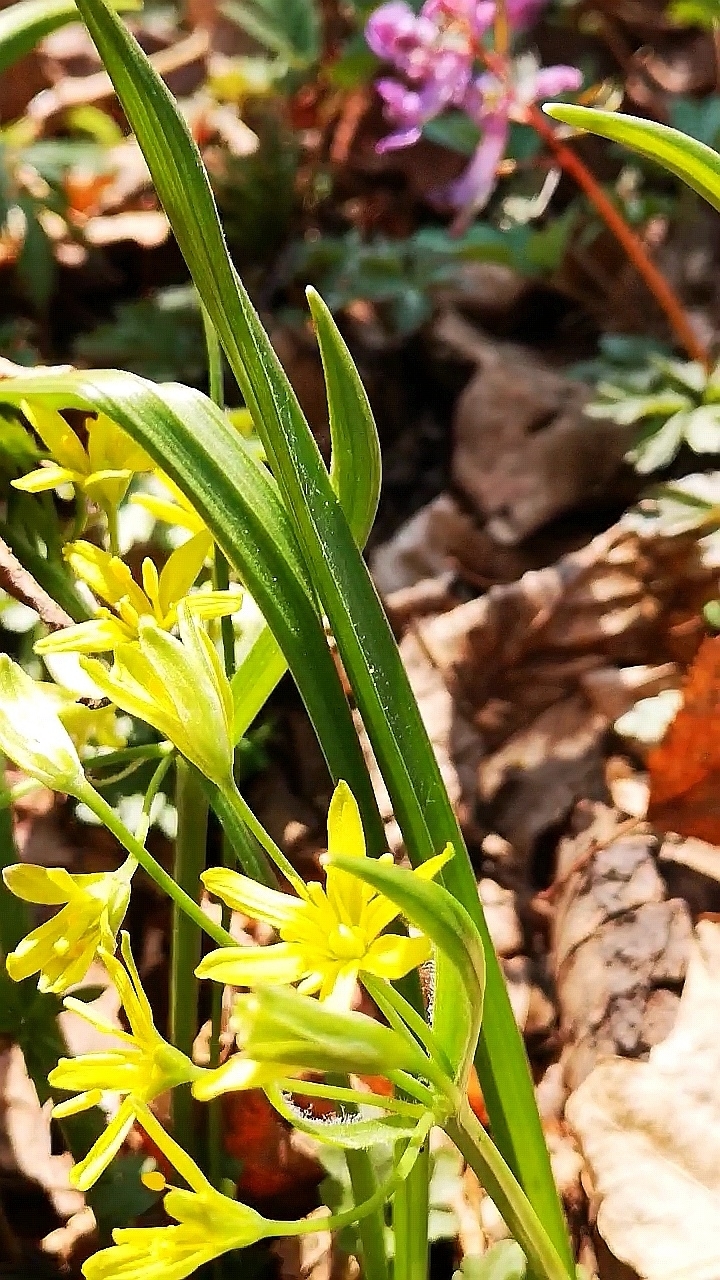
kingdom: Plantae
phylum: Tracheophyta
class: Liliopsida
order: Liliales
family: Liliaceae
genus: Gagea
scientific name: Gagea lutea
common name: Yellow star-of-bethlehem
